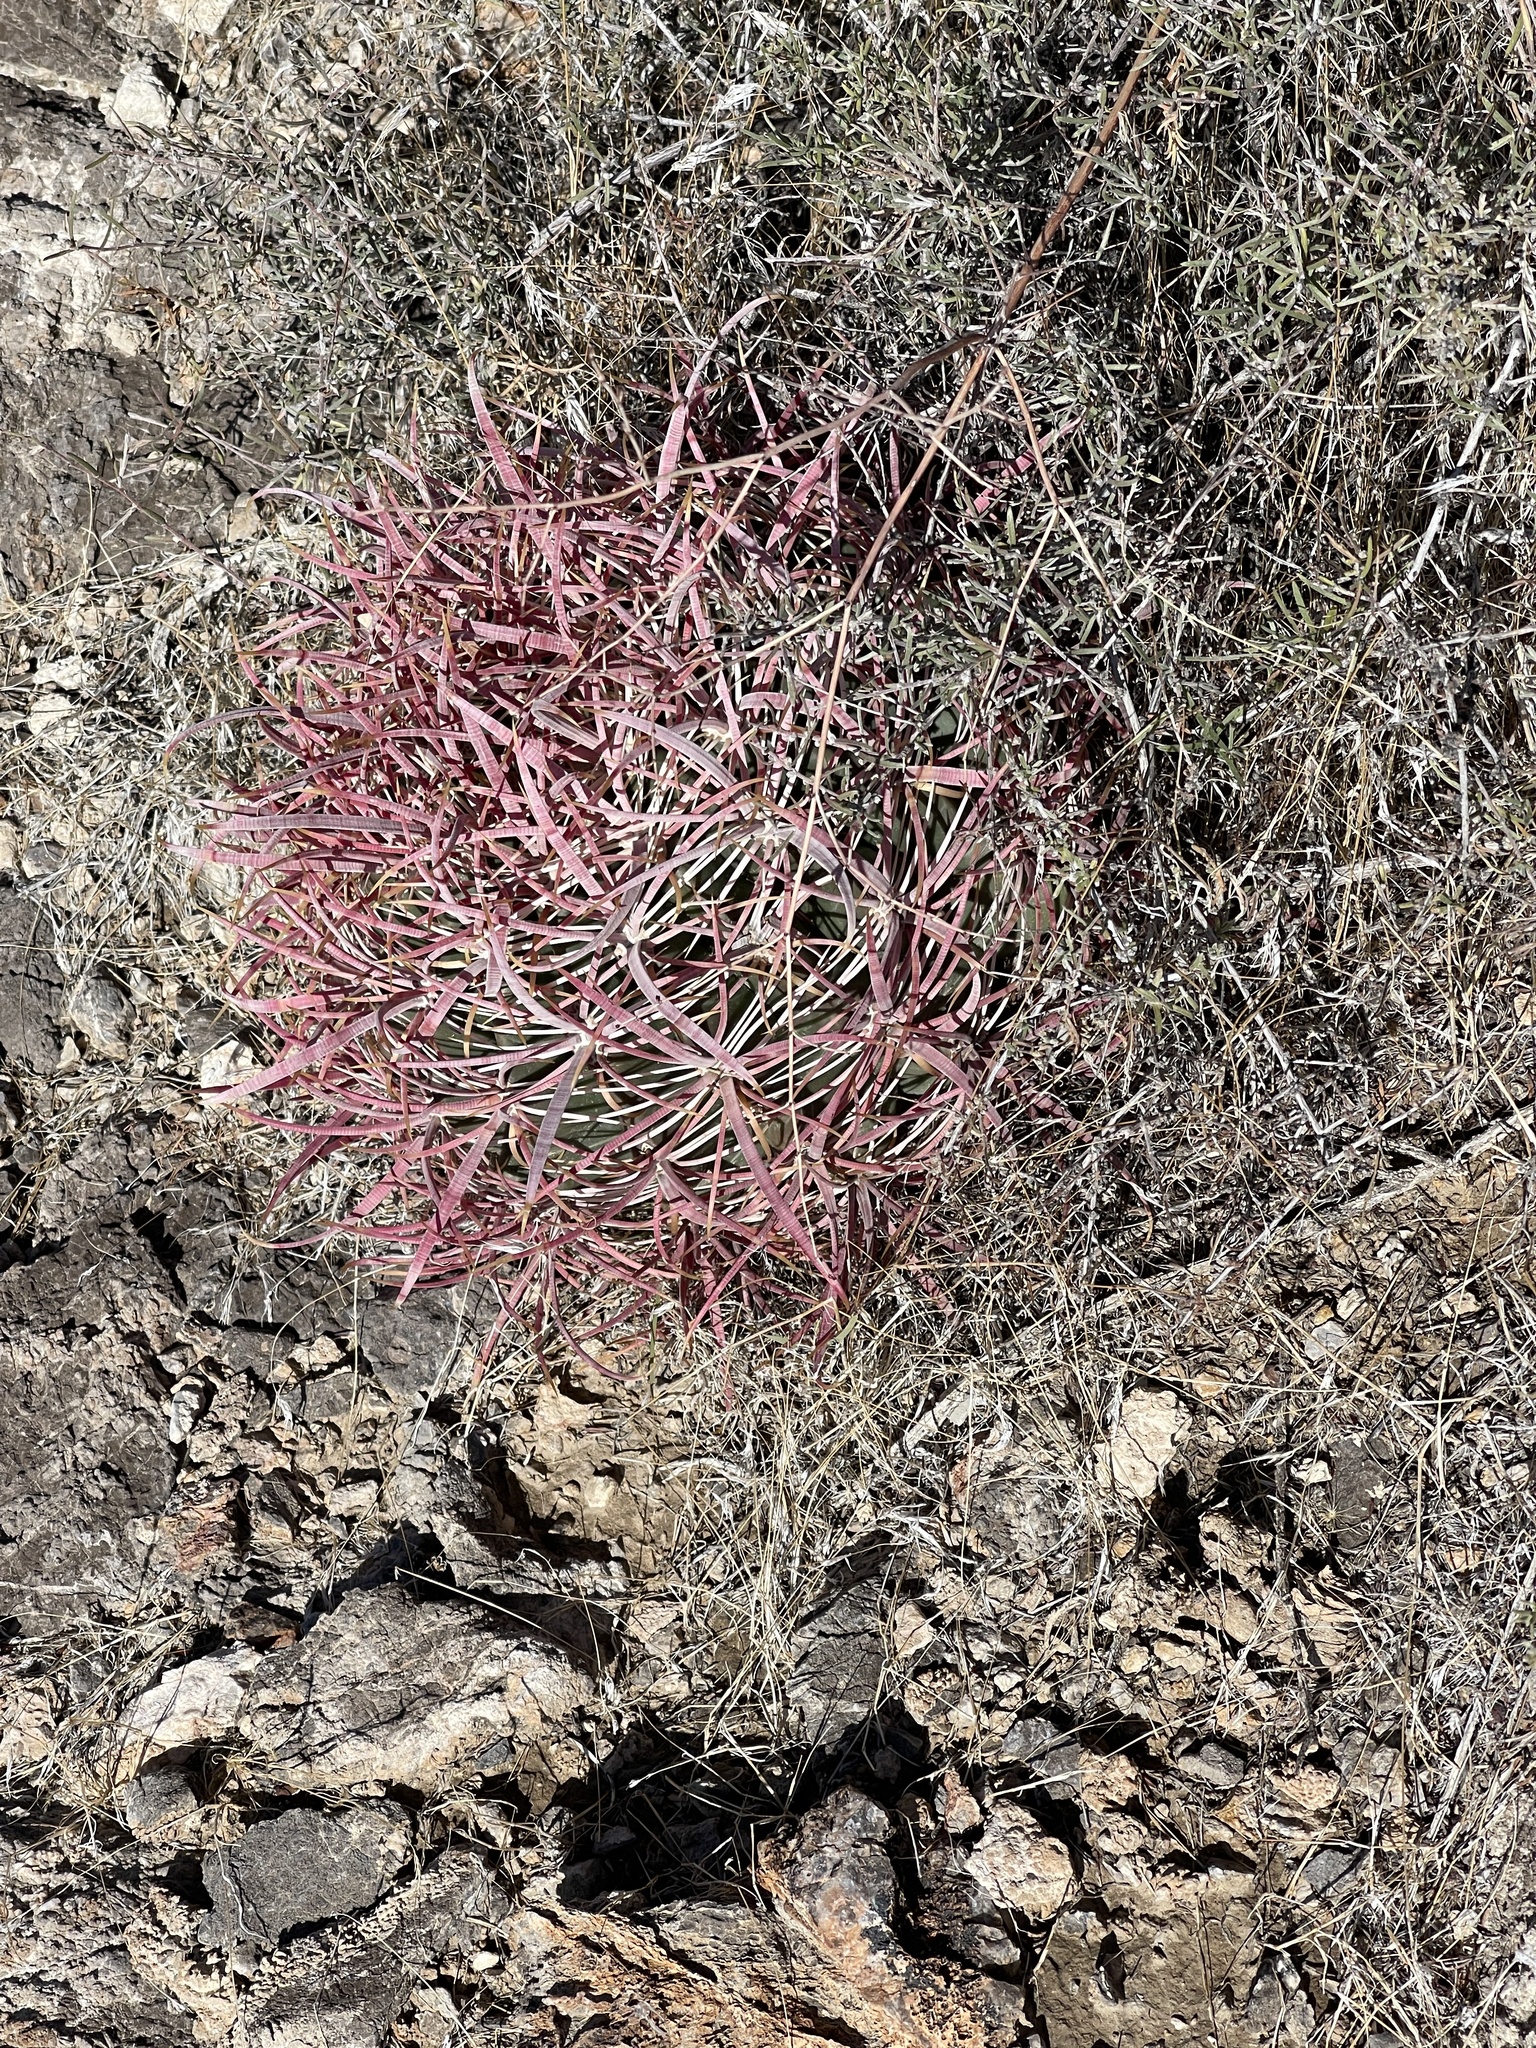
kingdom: Plantae
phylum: Tracheophyta
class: Magnoliopsida
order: Caryophyllales
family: Cactaceae
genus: Ferocactus
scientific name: Ferocactus cylindraceus
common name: California barrel cactus
